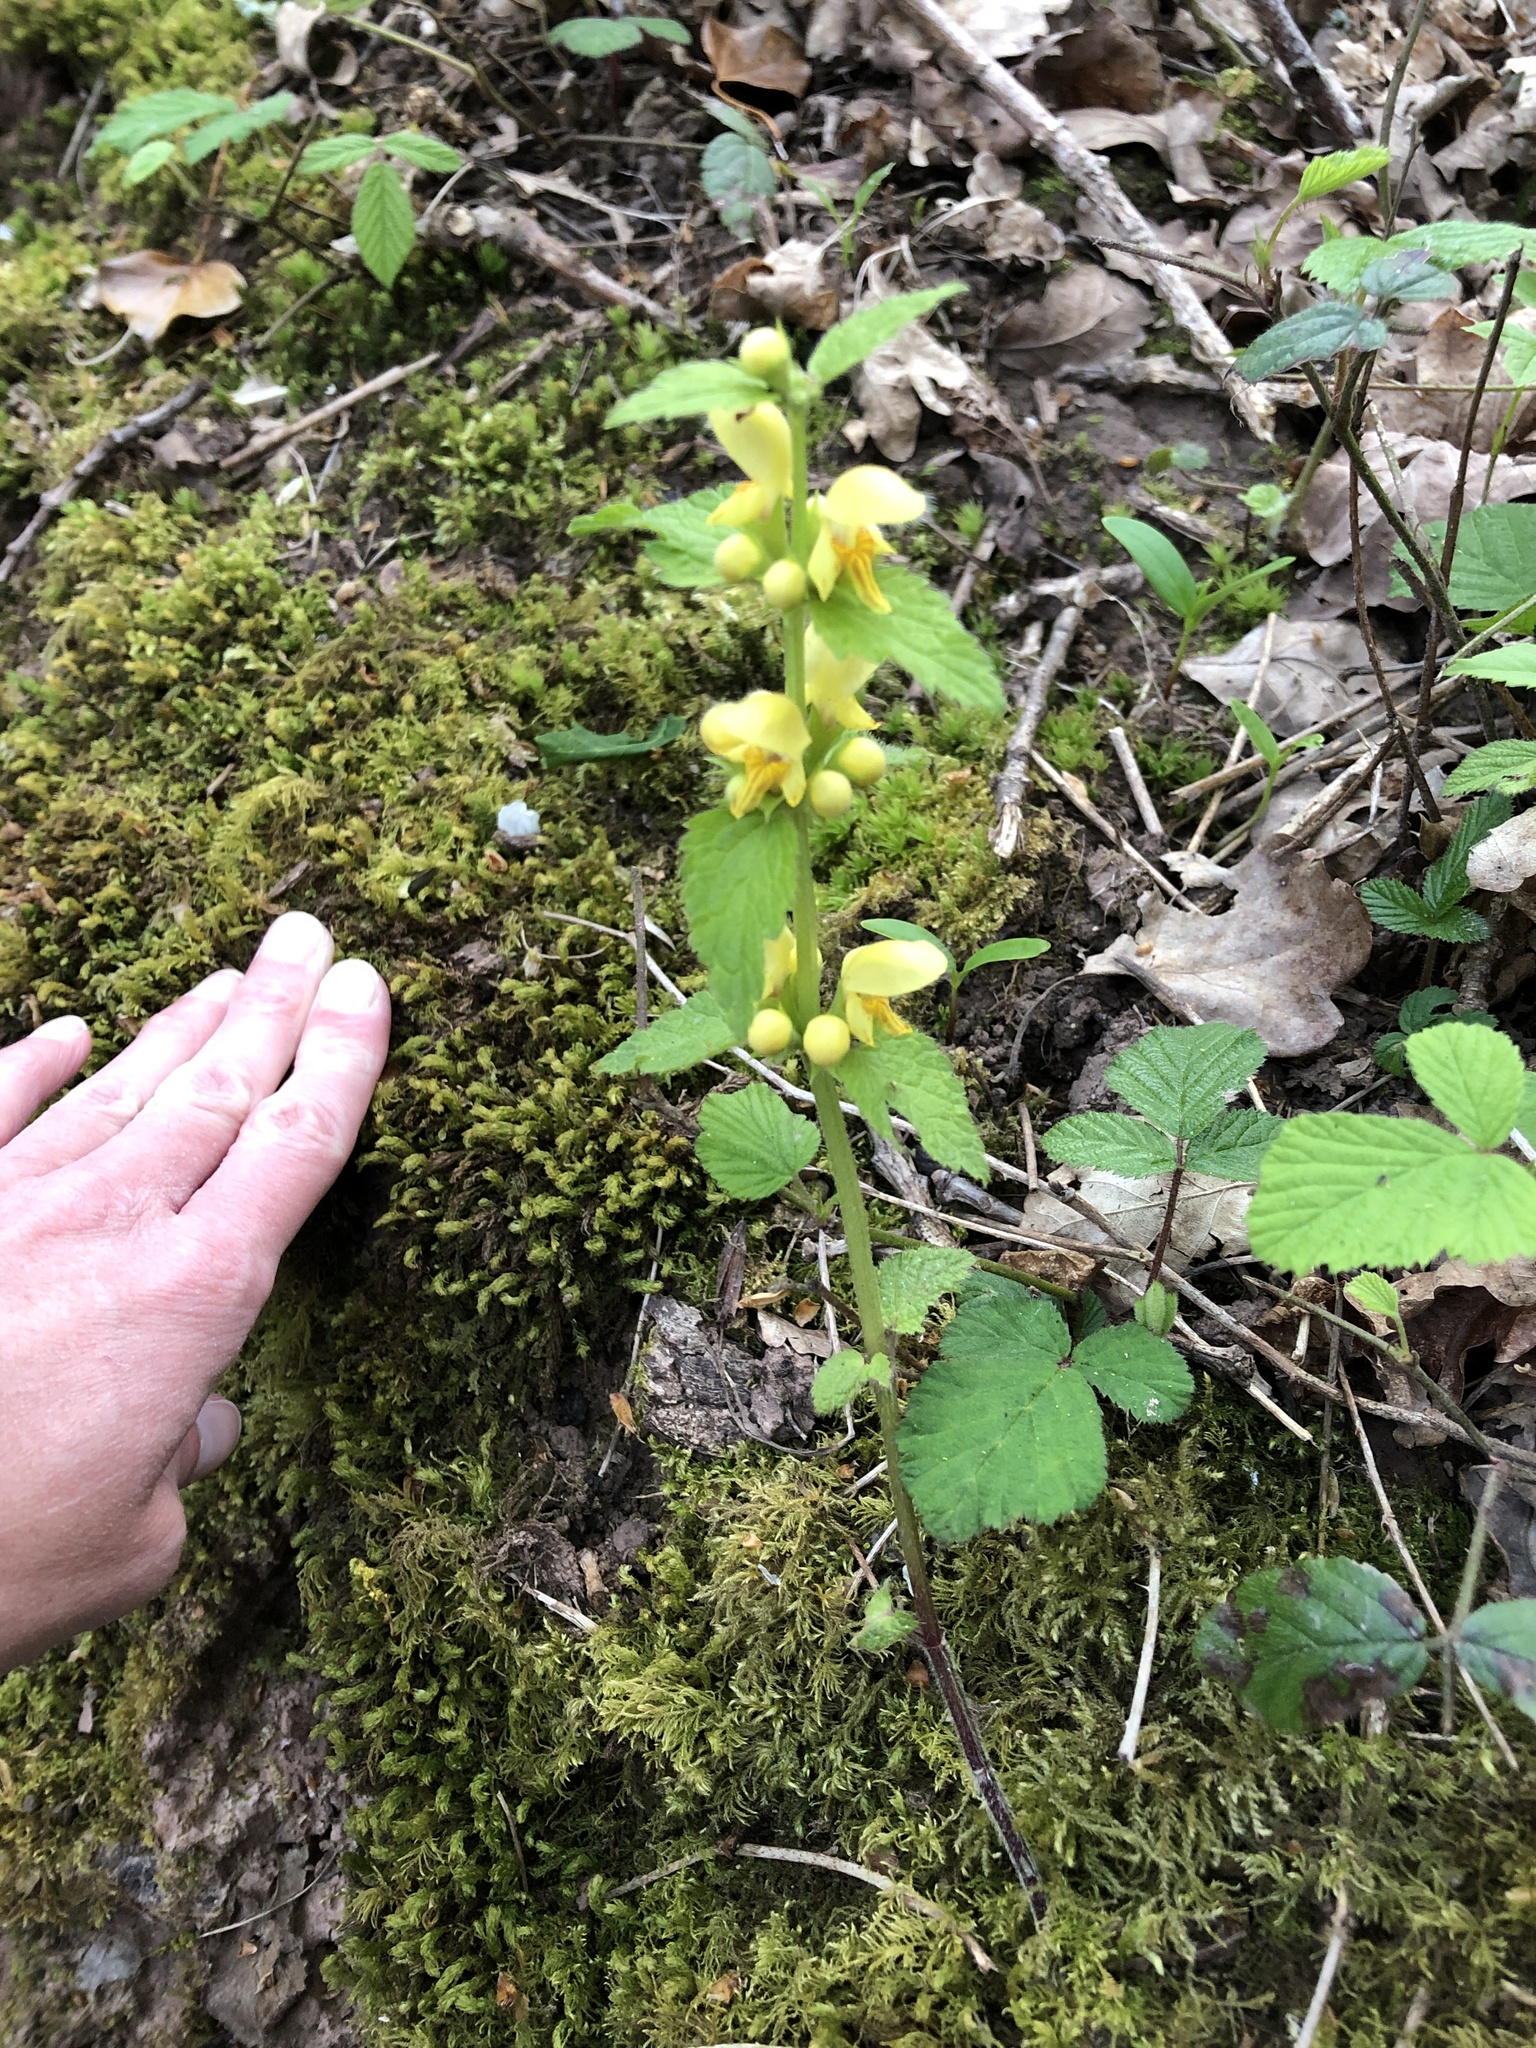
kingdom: Plantae
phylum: Tracheophyta
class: Magnoliopsida
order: Lamiales
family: Lamiaceae
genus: Lamium
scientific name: Lamium galeobdolon
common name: Yellow archangel
